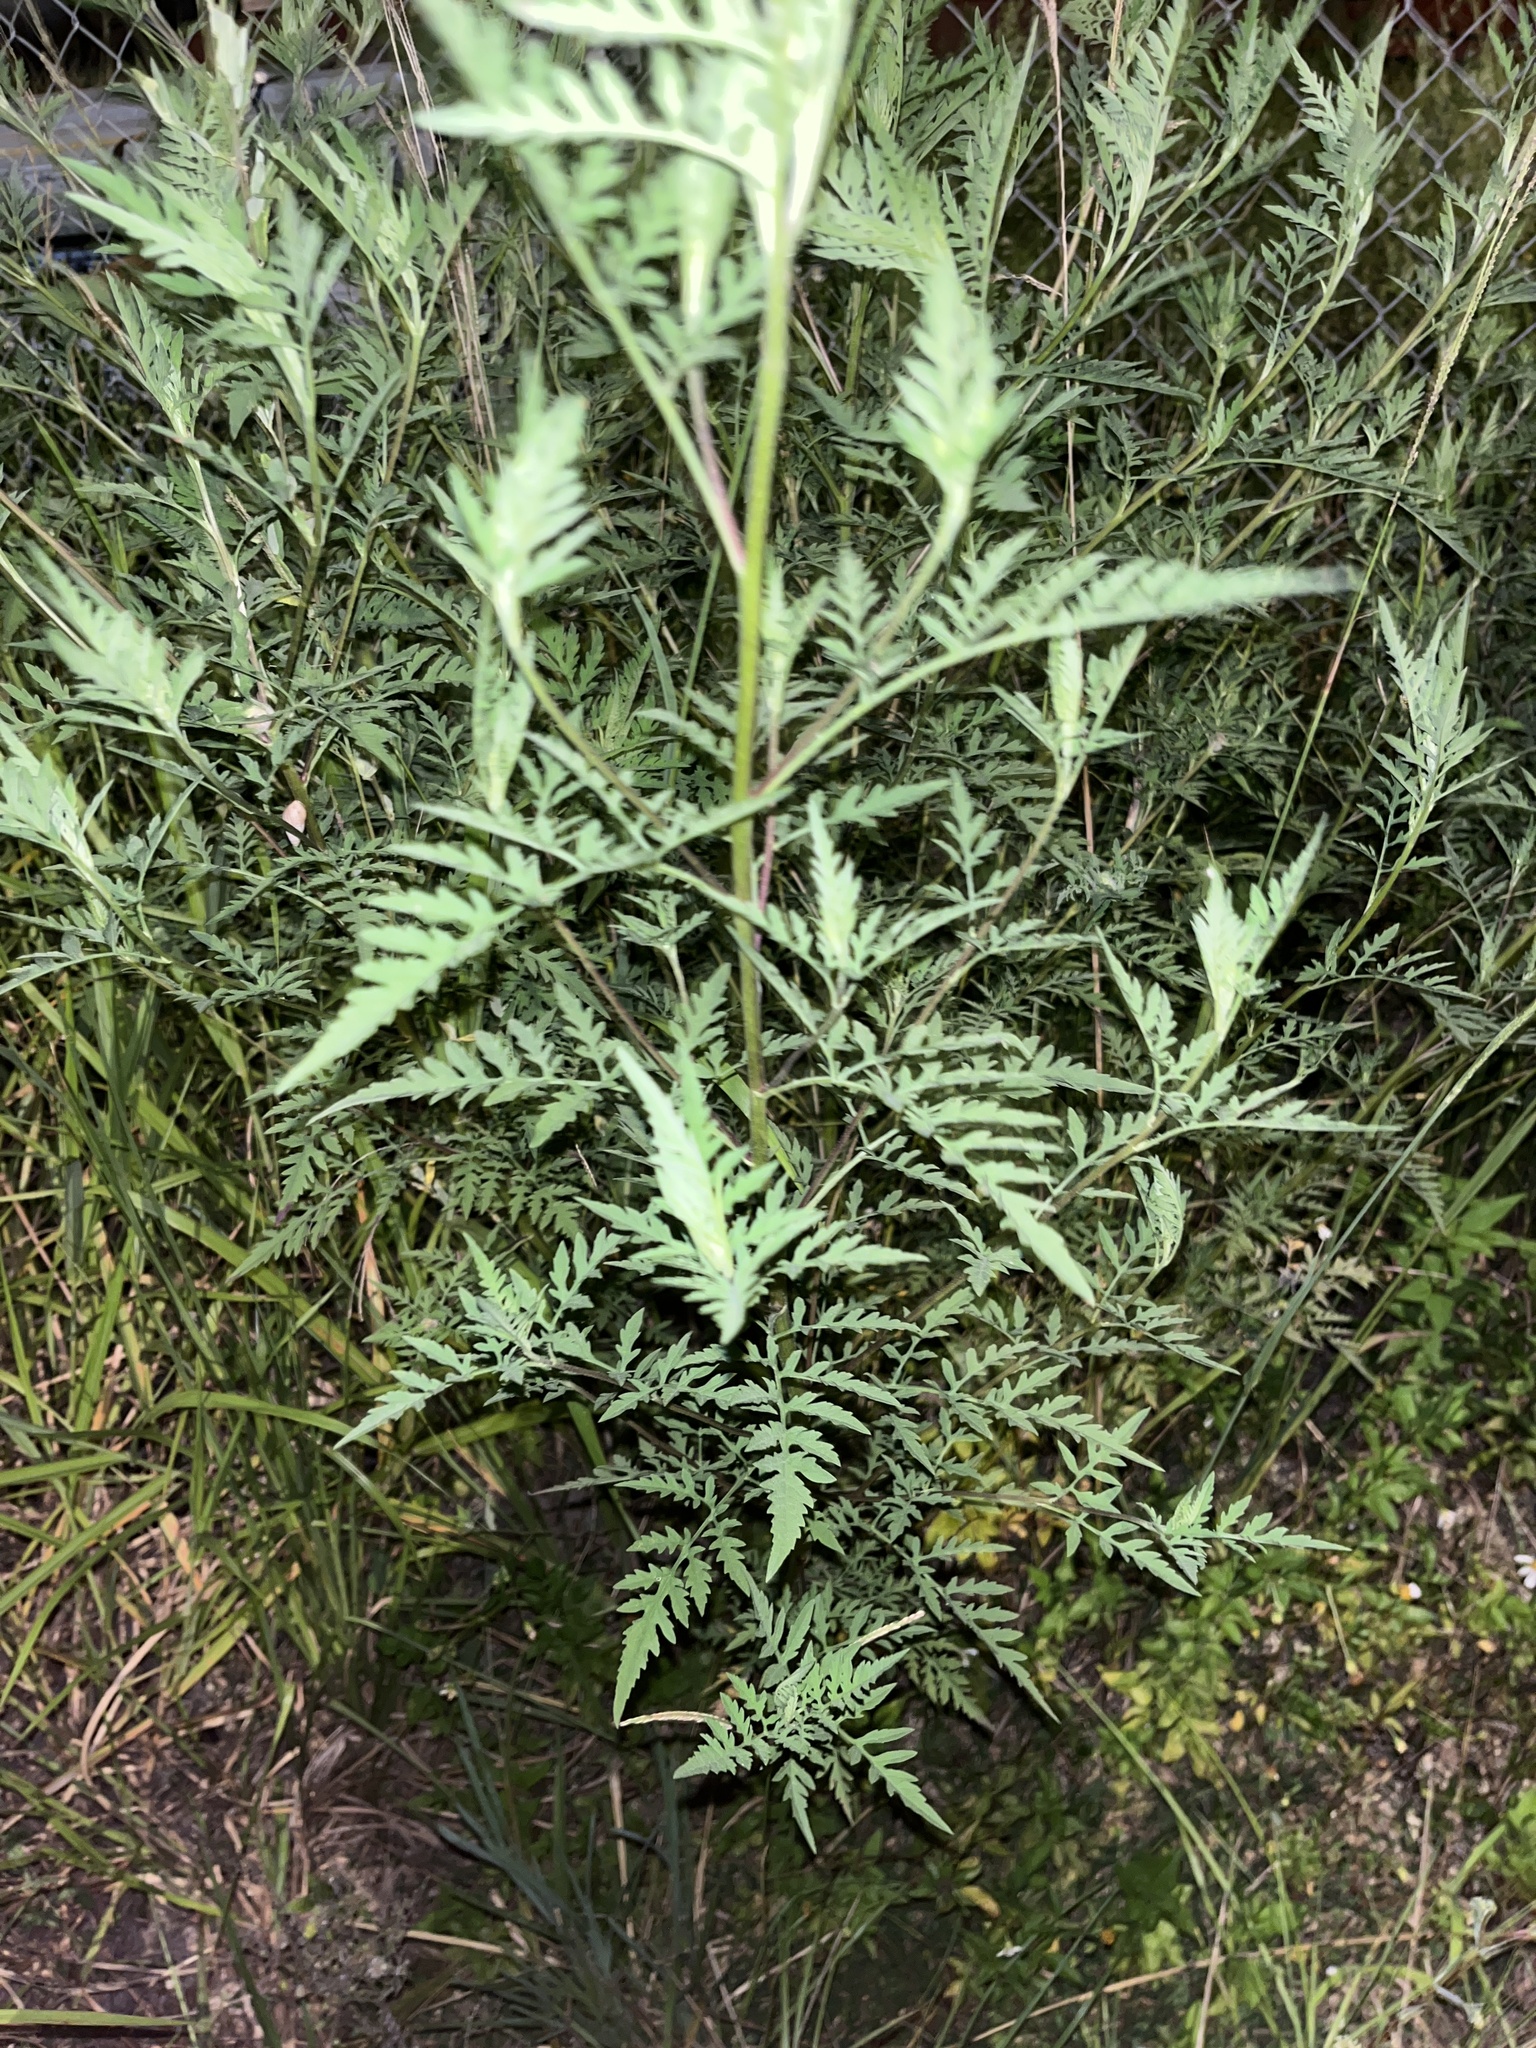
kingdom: Plantae
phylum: Tracheophyta
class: Magnoliopsida
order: Asterales
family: Asteraceae
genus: Ambrosia
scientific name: Ambrosia artemisiifolia
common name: Annual ragweed
